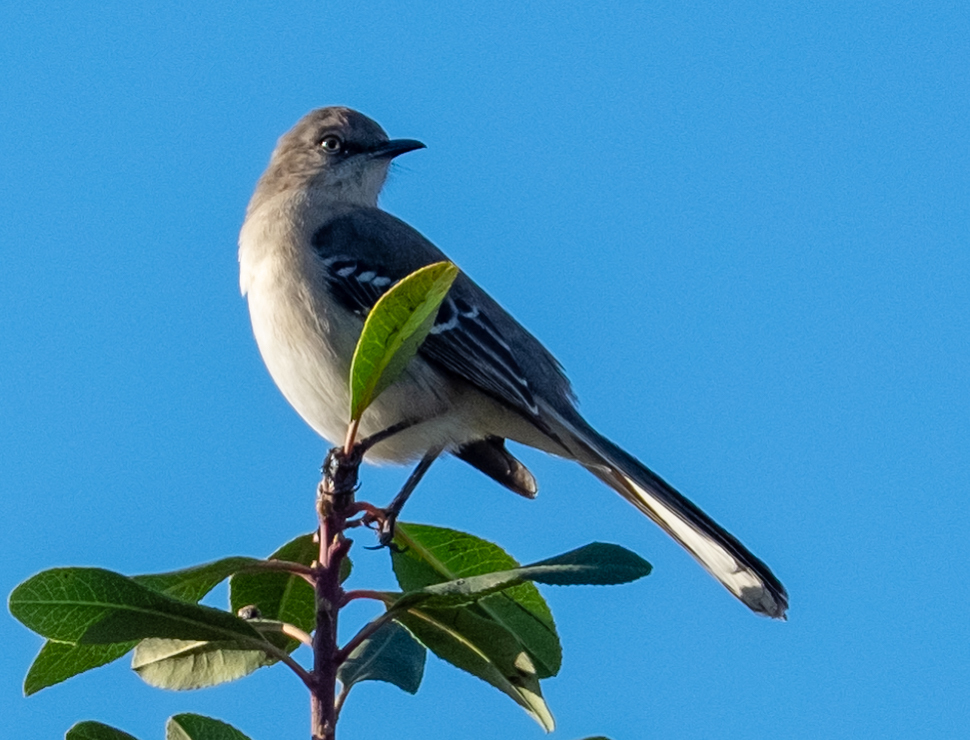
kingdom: Animalia
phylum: Chordata
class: Aves
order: Passeriformes
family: Mimidae
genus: Mimus
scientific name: Mimus polyglottos
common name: Northern mockingbird
